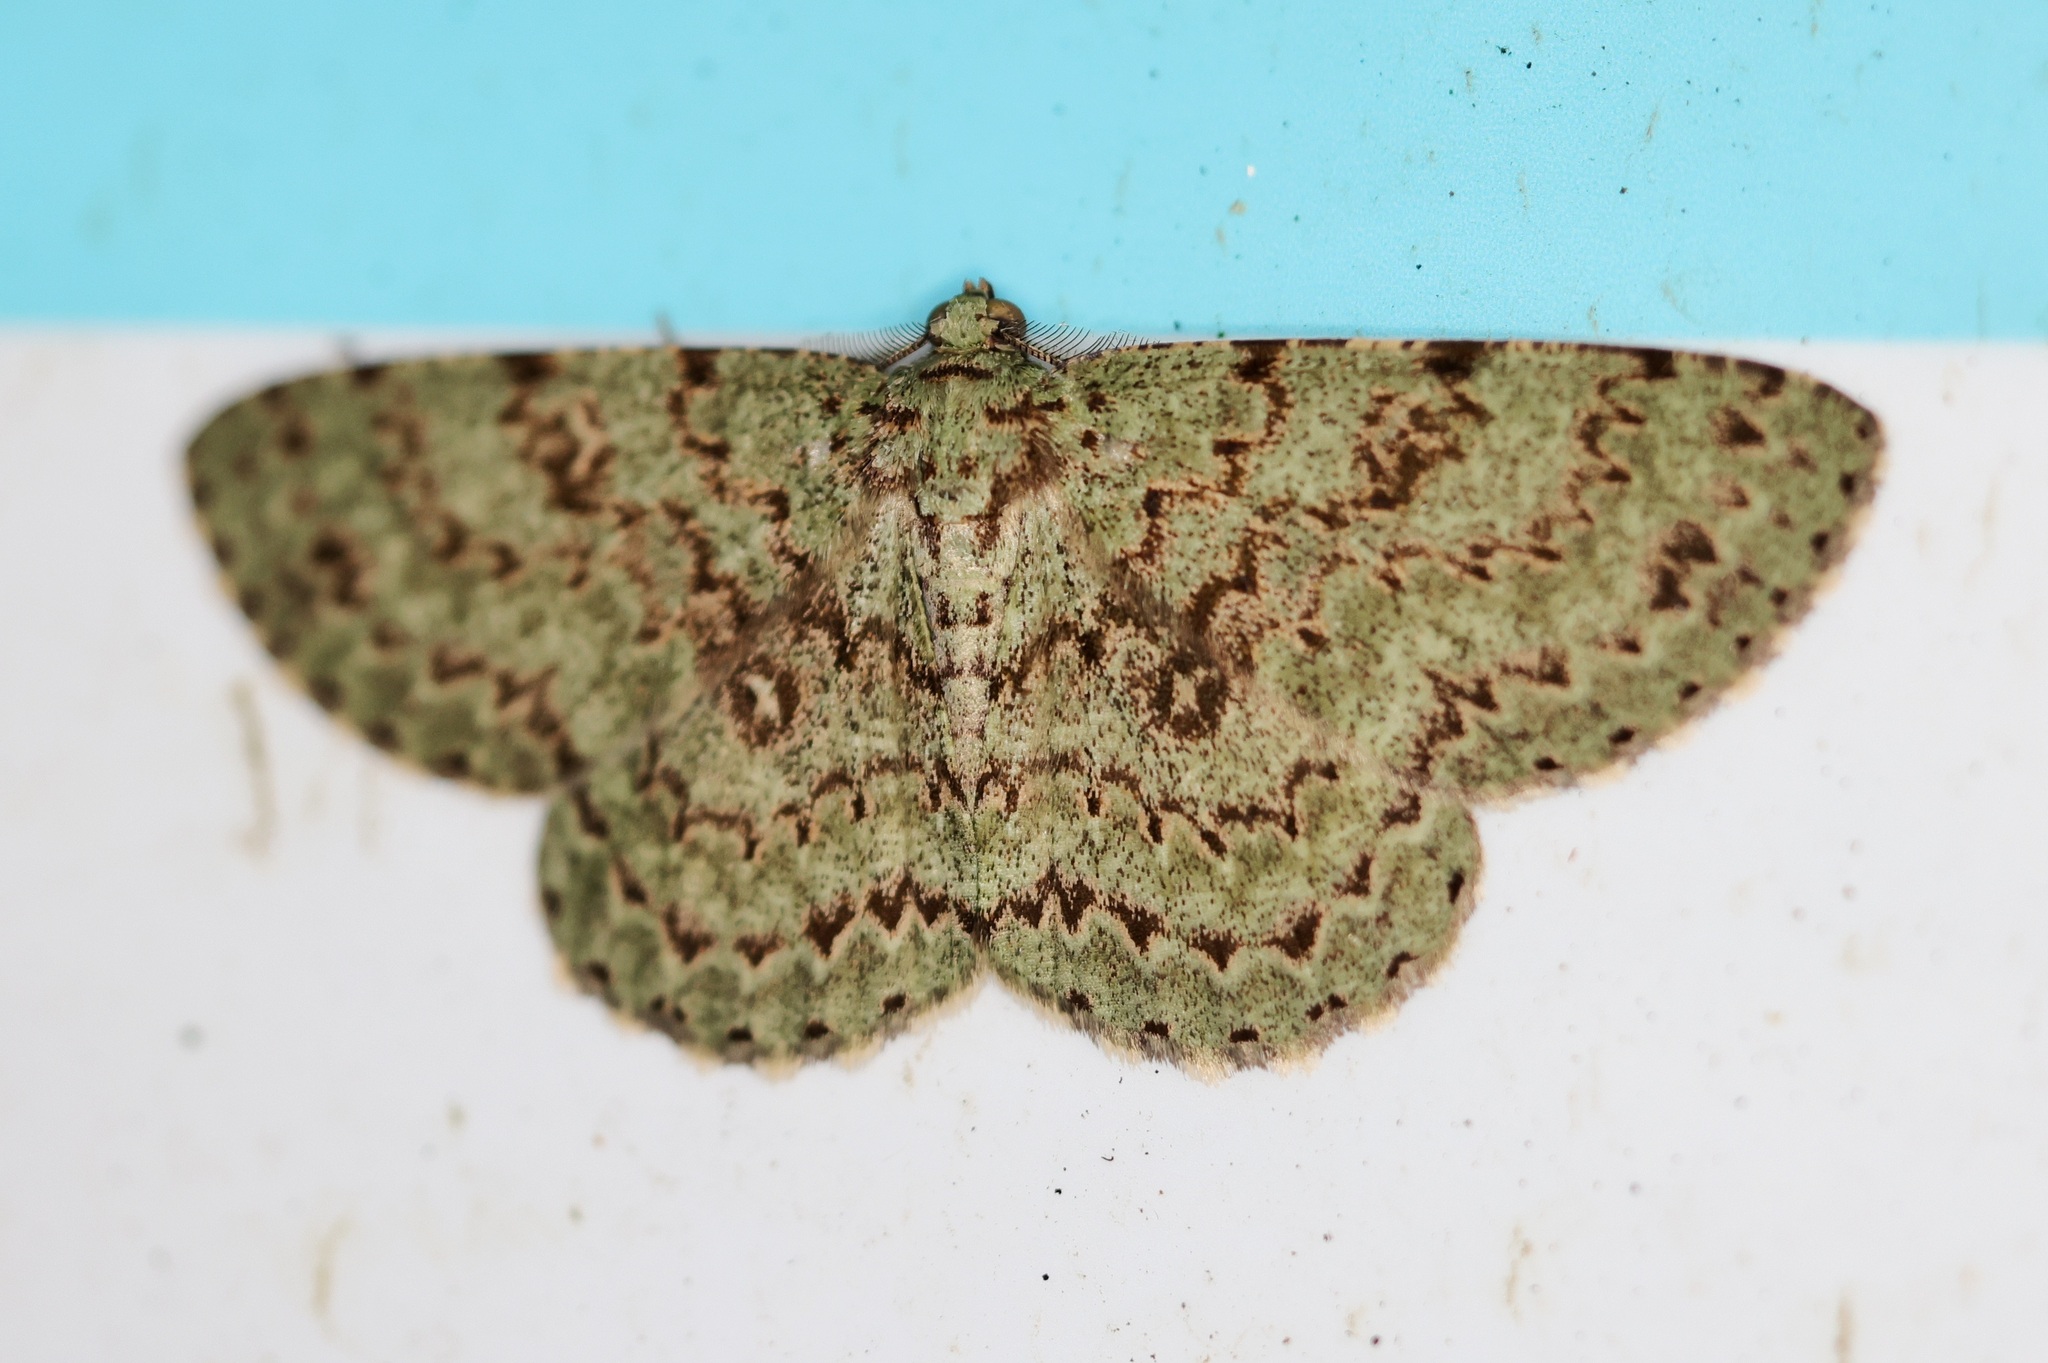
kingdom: Animalia
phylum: Arthropoda
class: Insecta
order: Lepidoptera
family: Geometridae
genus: Ophthalmitis
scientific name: Ophthalmitis herbidaria
